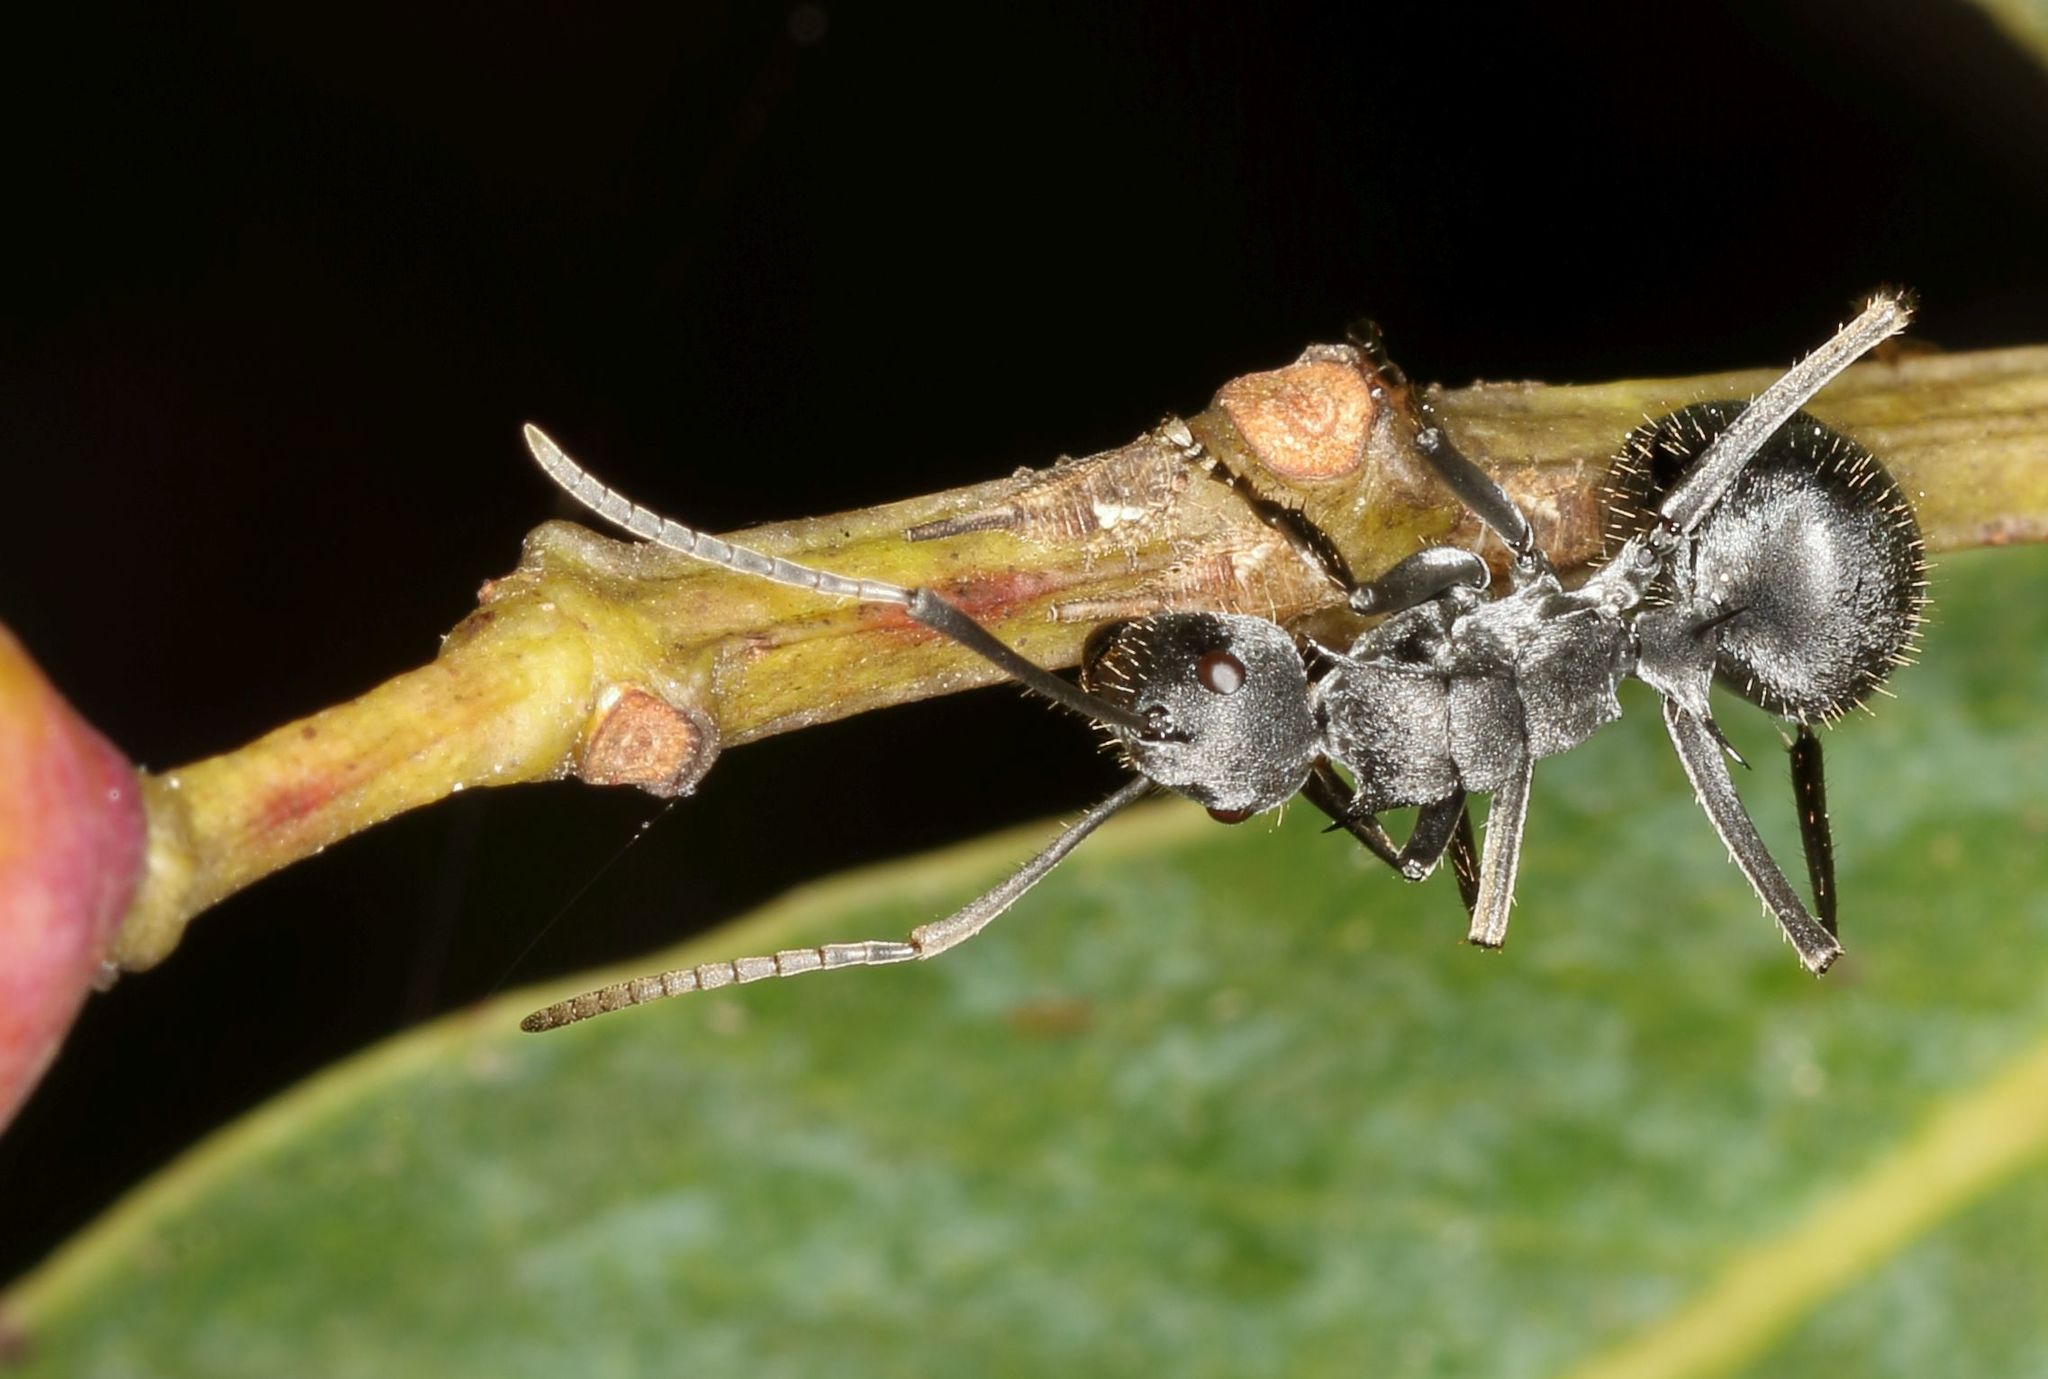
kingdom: Animalia
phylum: Arthropoda
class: Insecta
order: Hymenoptera
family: Formicidae
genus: Polyrhachis
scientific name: Polyrhachis schlueteri
